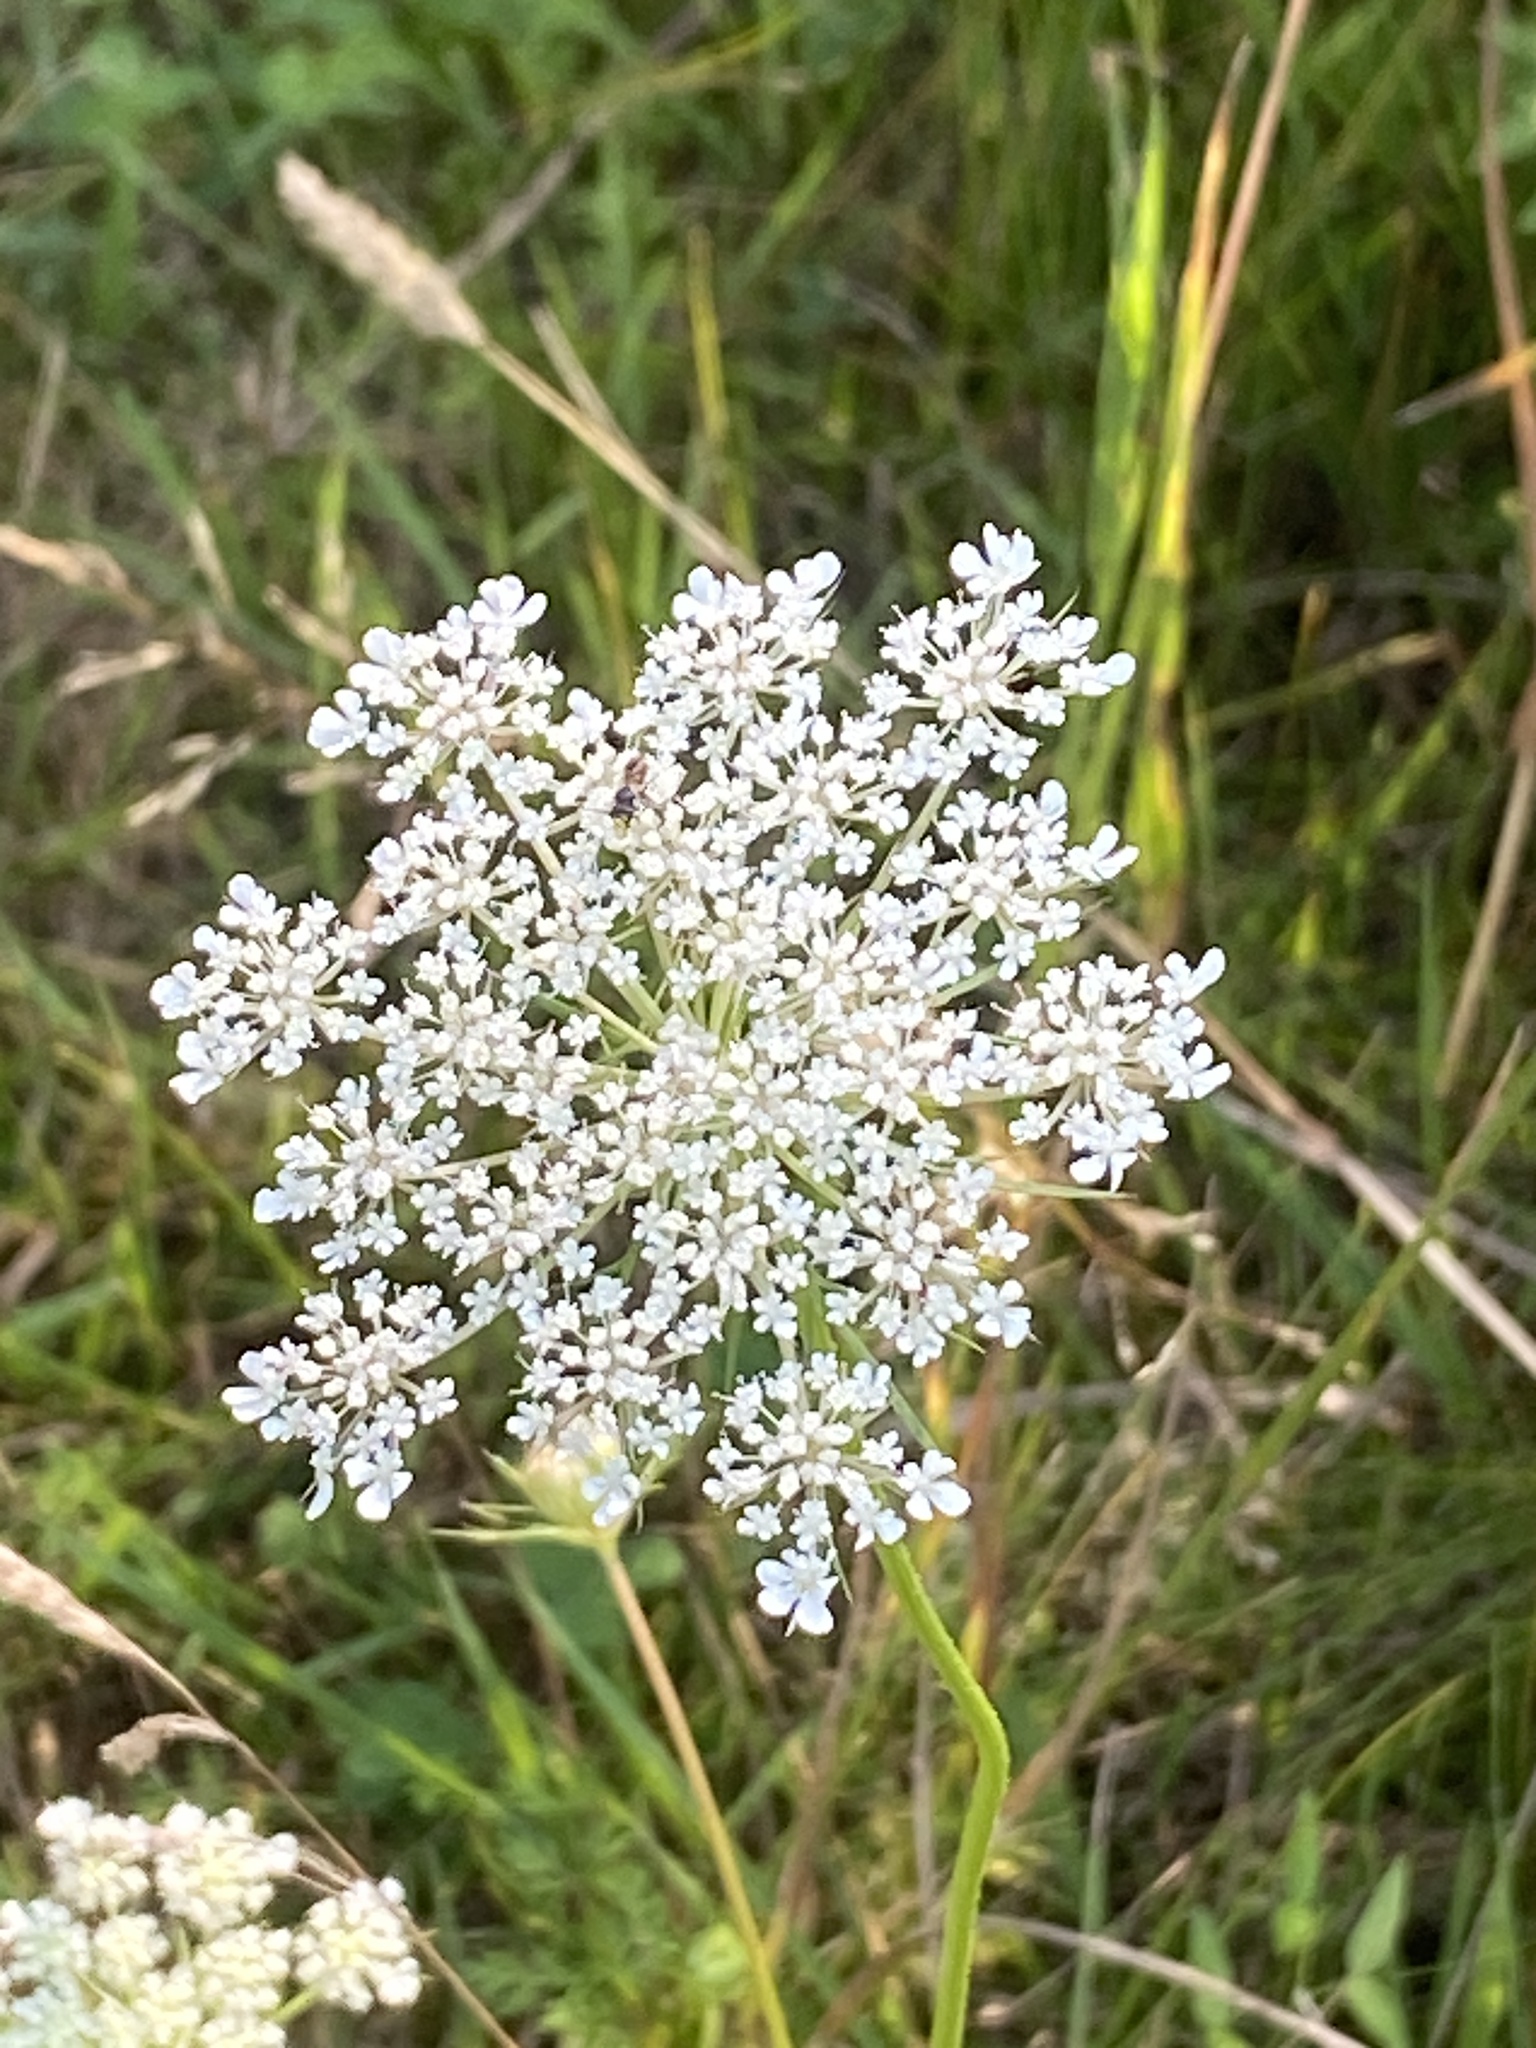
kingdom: Plantae
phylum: Tracheophyta
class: Magnoliopsida
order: Apiales
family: Apiaceae
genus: Daucus
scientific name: Daucus carota
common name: Wild carrot
